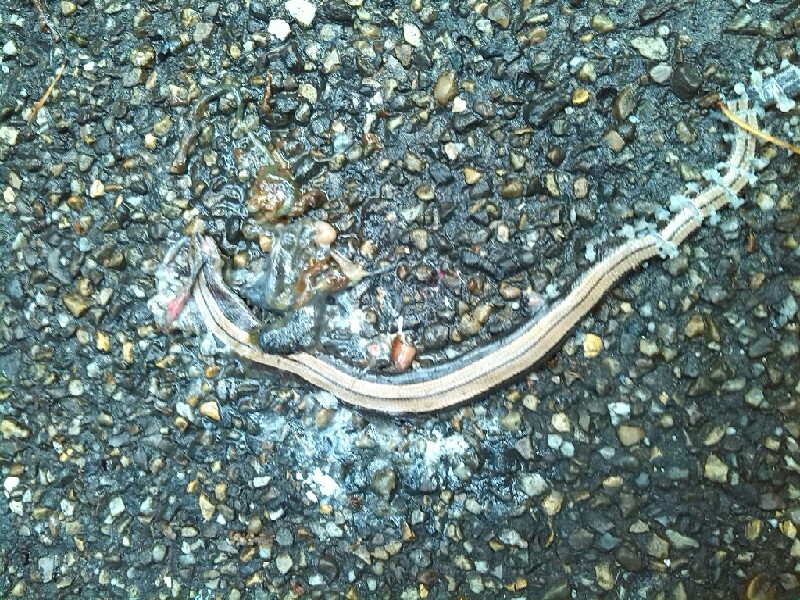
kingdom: Animalia
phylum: Chordata
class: Squamata
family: Anguidae
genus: Anguis
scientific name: Anguis fragilis
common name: Slow worm
